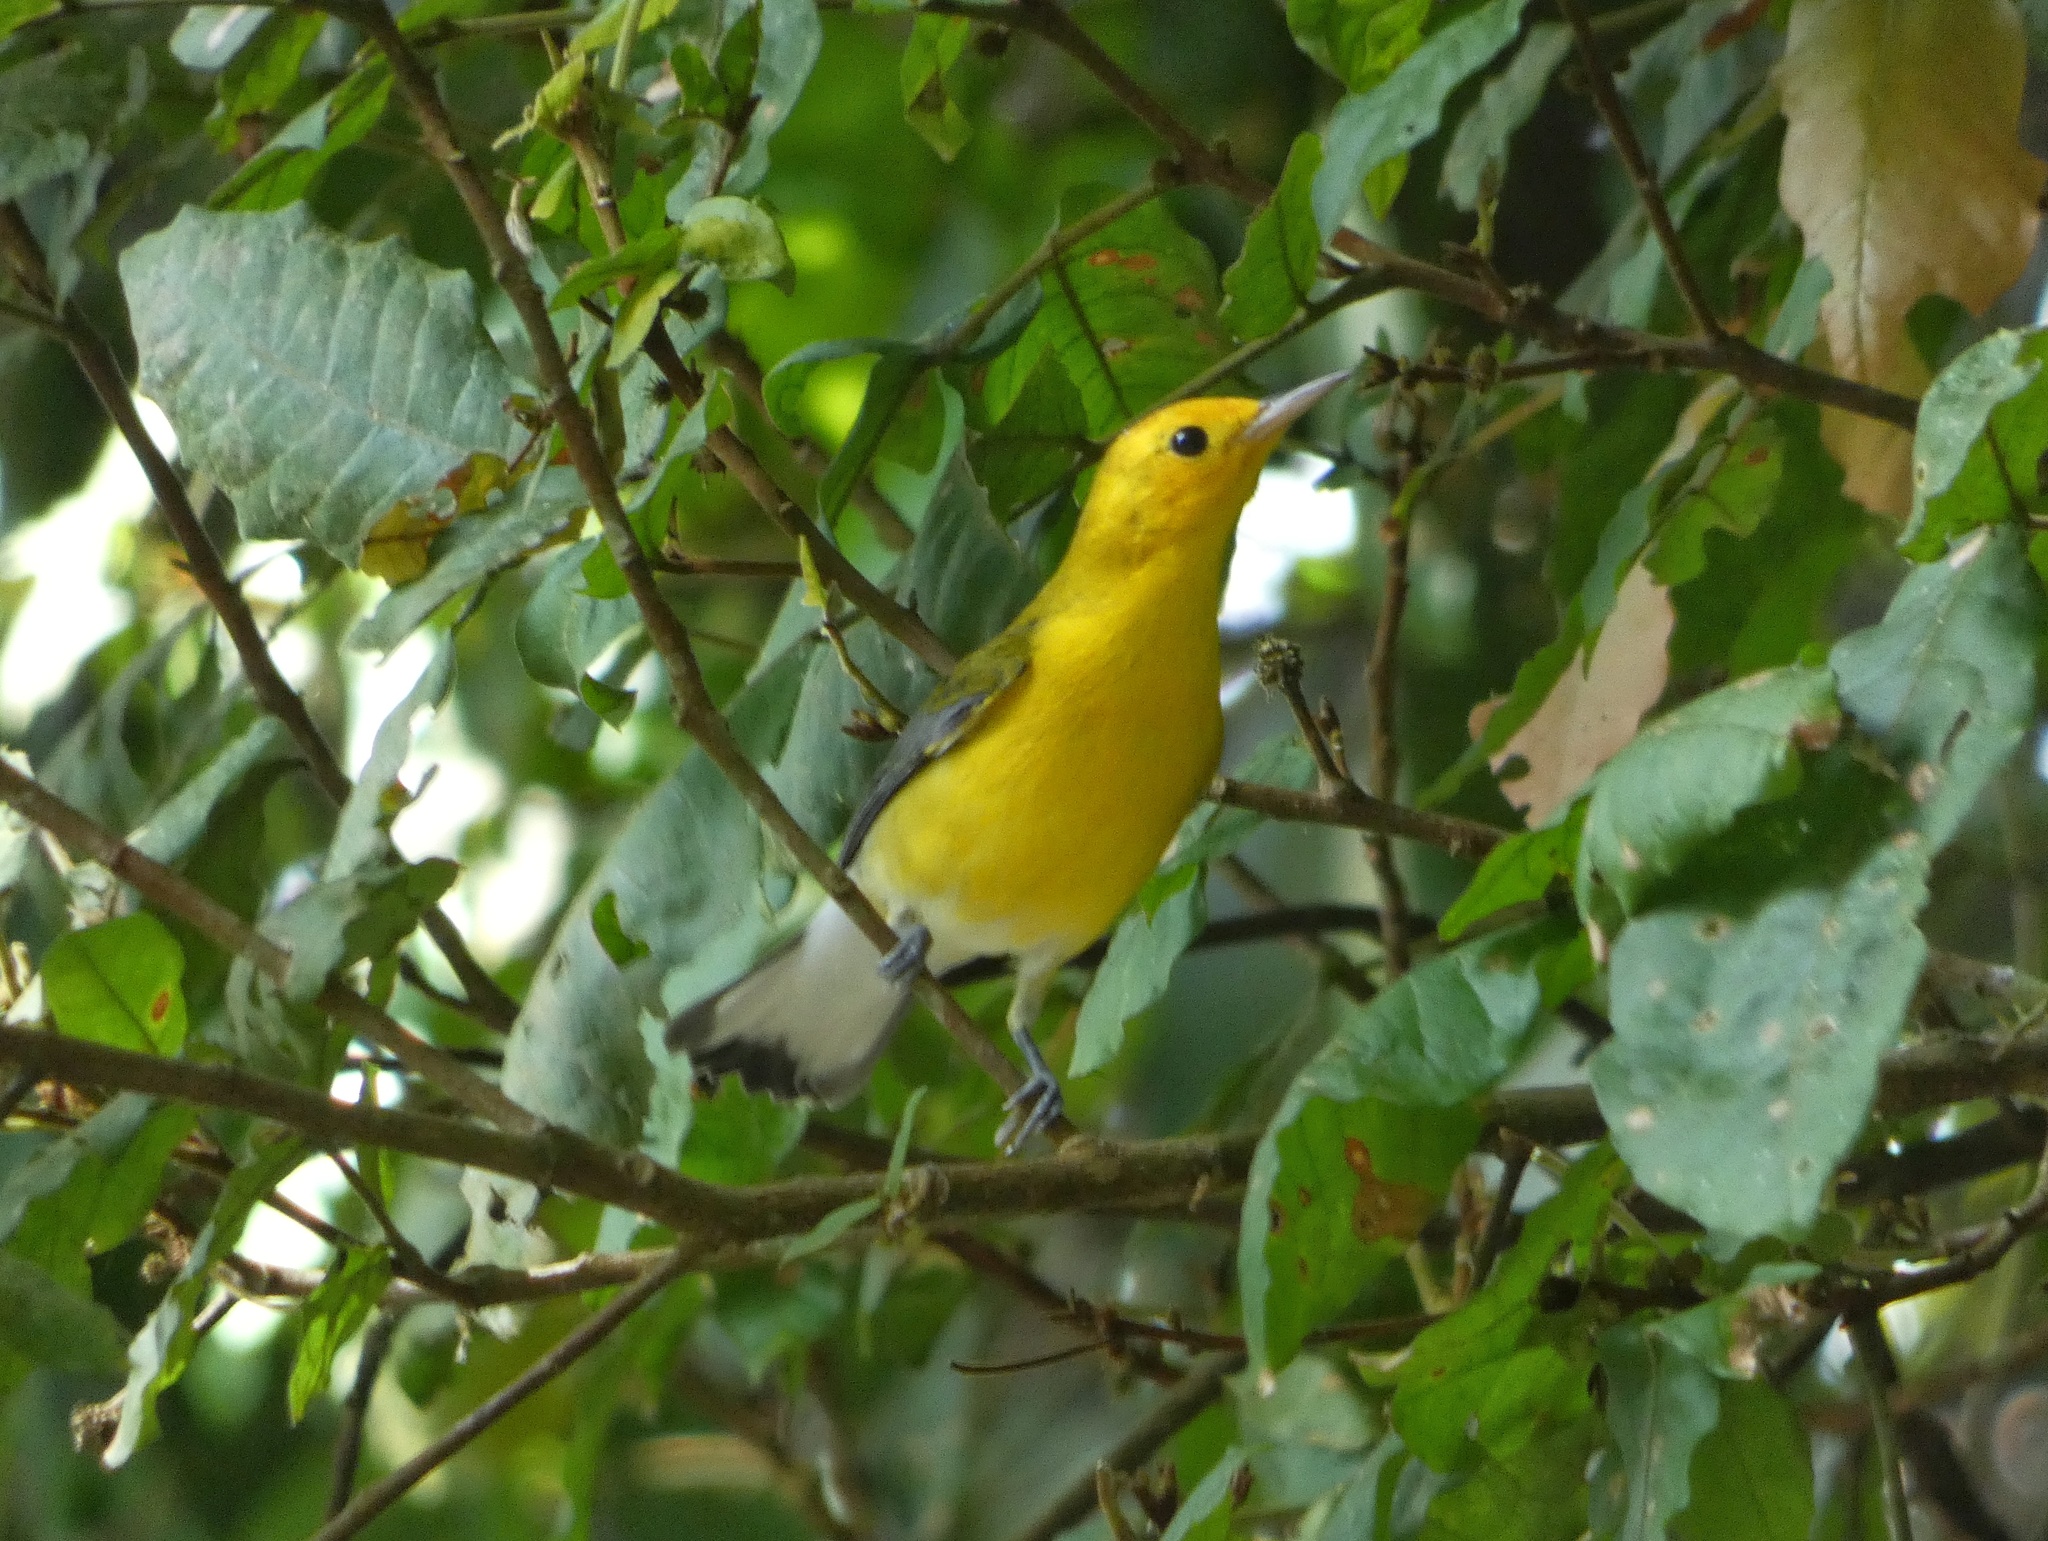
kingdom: Animalia
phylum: Chordata
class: Aves
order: Passeriformes
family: Parulidae
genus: Protonotaria
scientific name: Protonotaria citrea
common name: Prothonotary warbler
